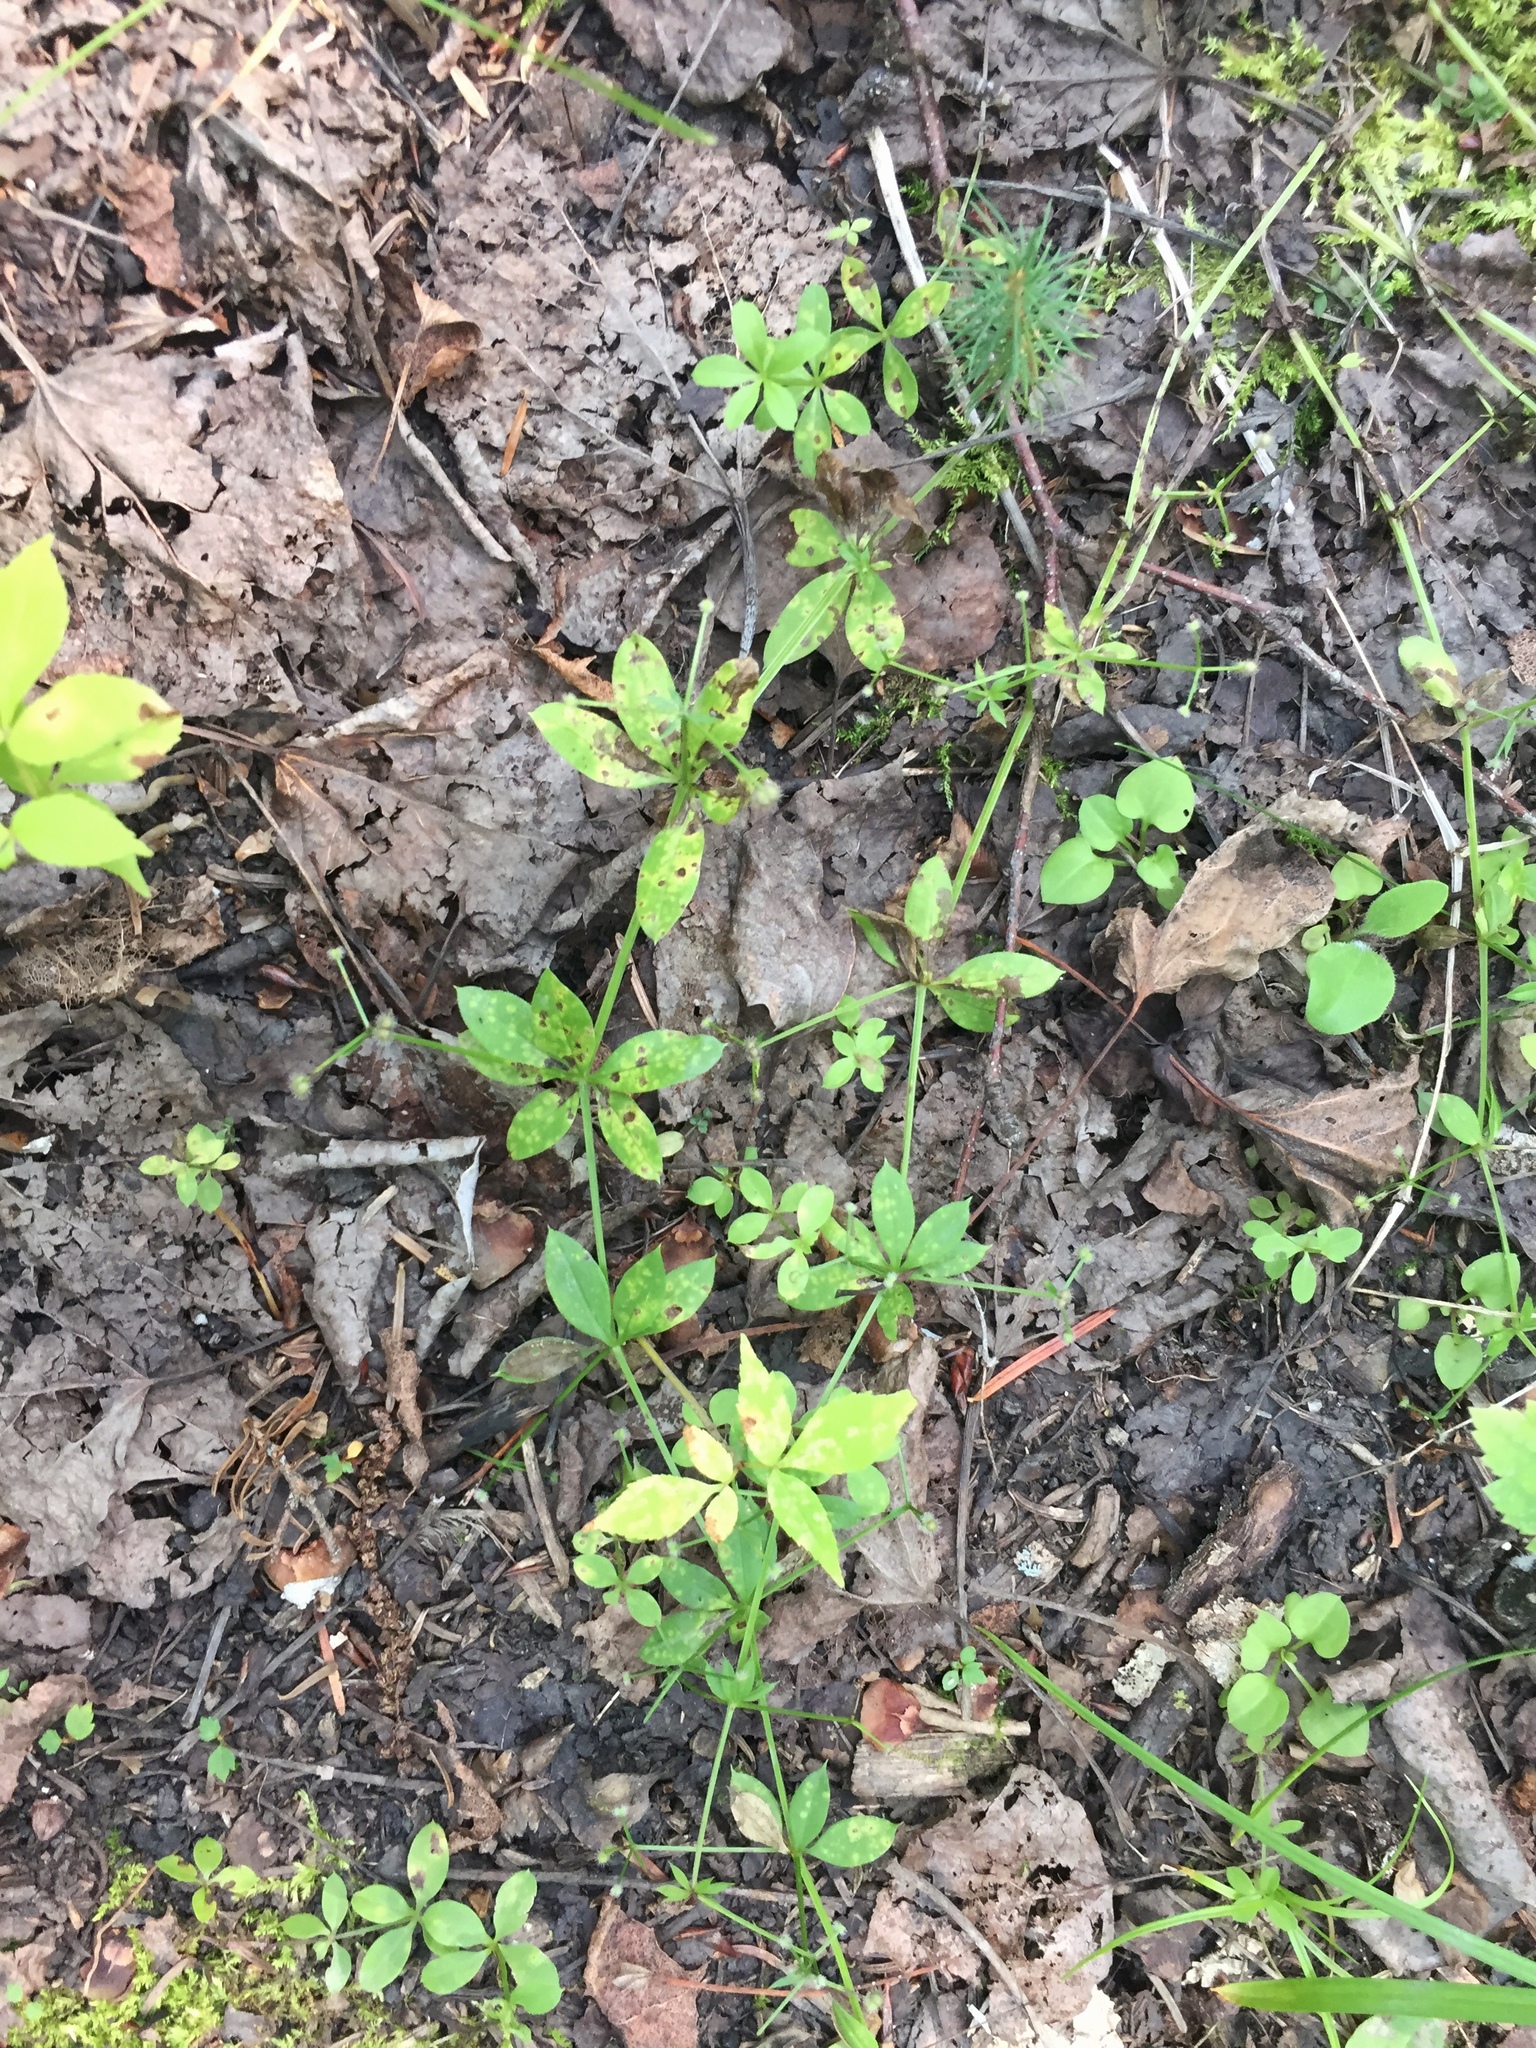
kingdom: Plantae
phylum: Tracheophyta
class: Magnoliopsida
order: Gentianales
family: Rubiaceae
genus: Galium
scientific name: Galium triflorum
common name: Fragrant bedstraw
